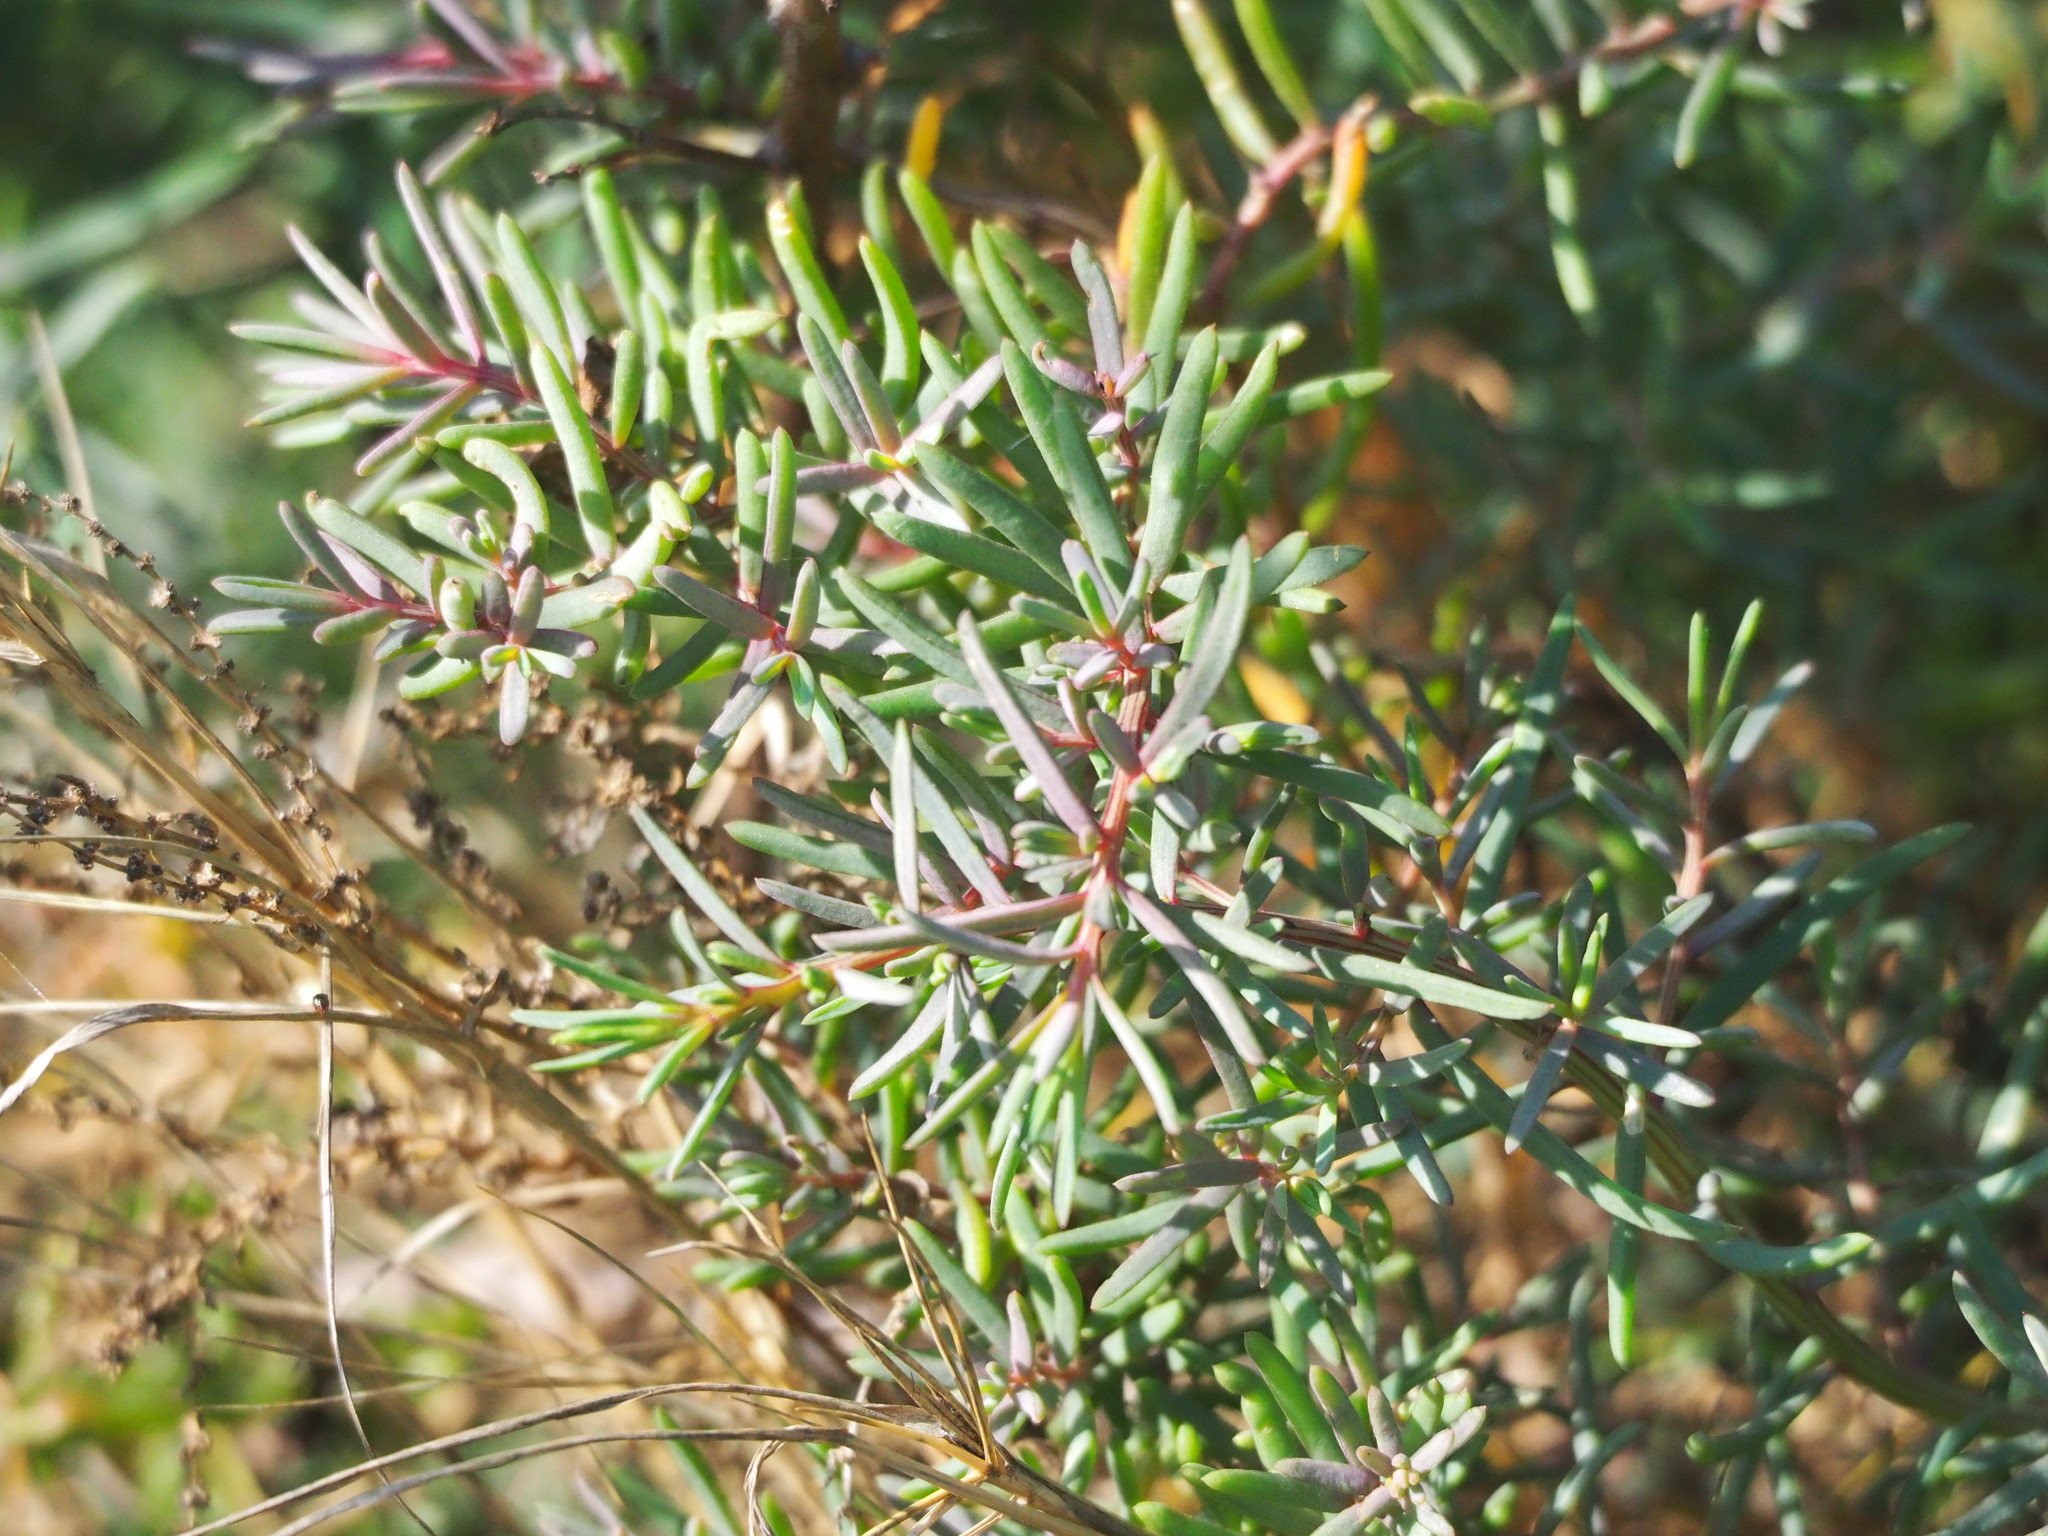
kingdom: Plantae
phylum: Tracheophyta
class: Magnoliopsida
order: Caryophyllales
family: Amaranthaceae
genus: Suaeda
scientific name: Suaeda maritima
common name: Annual sea-blite
